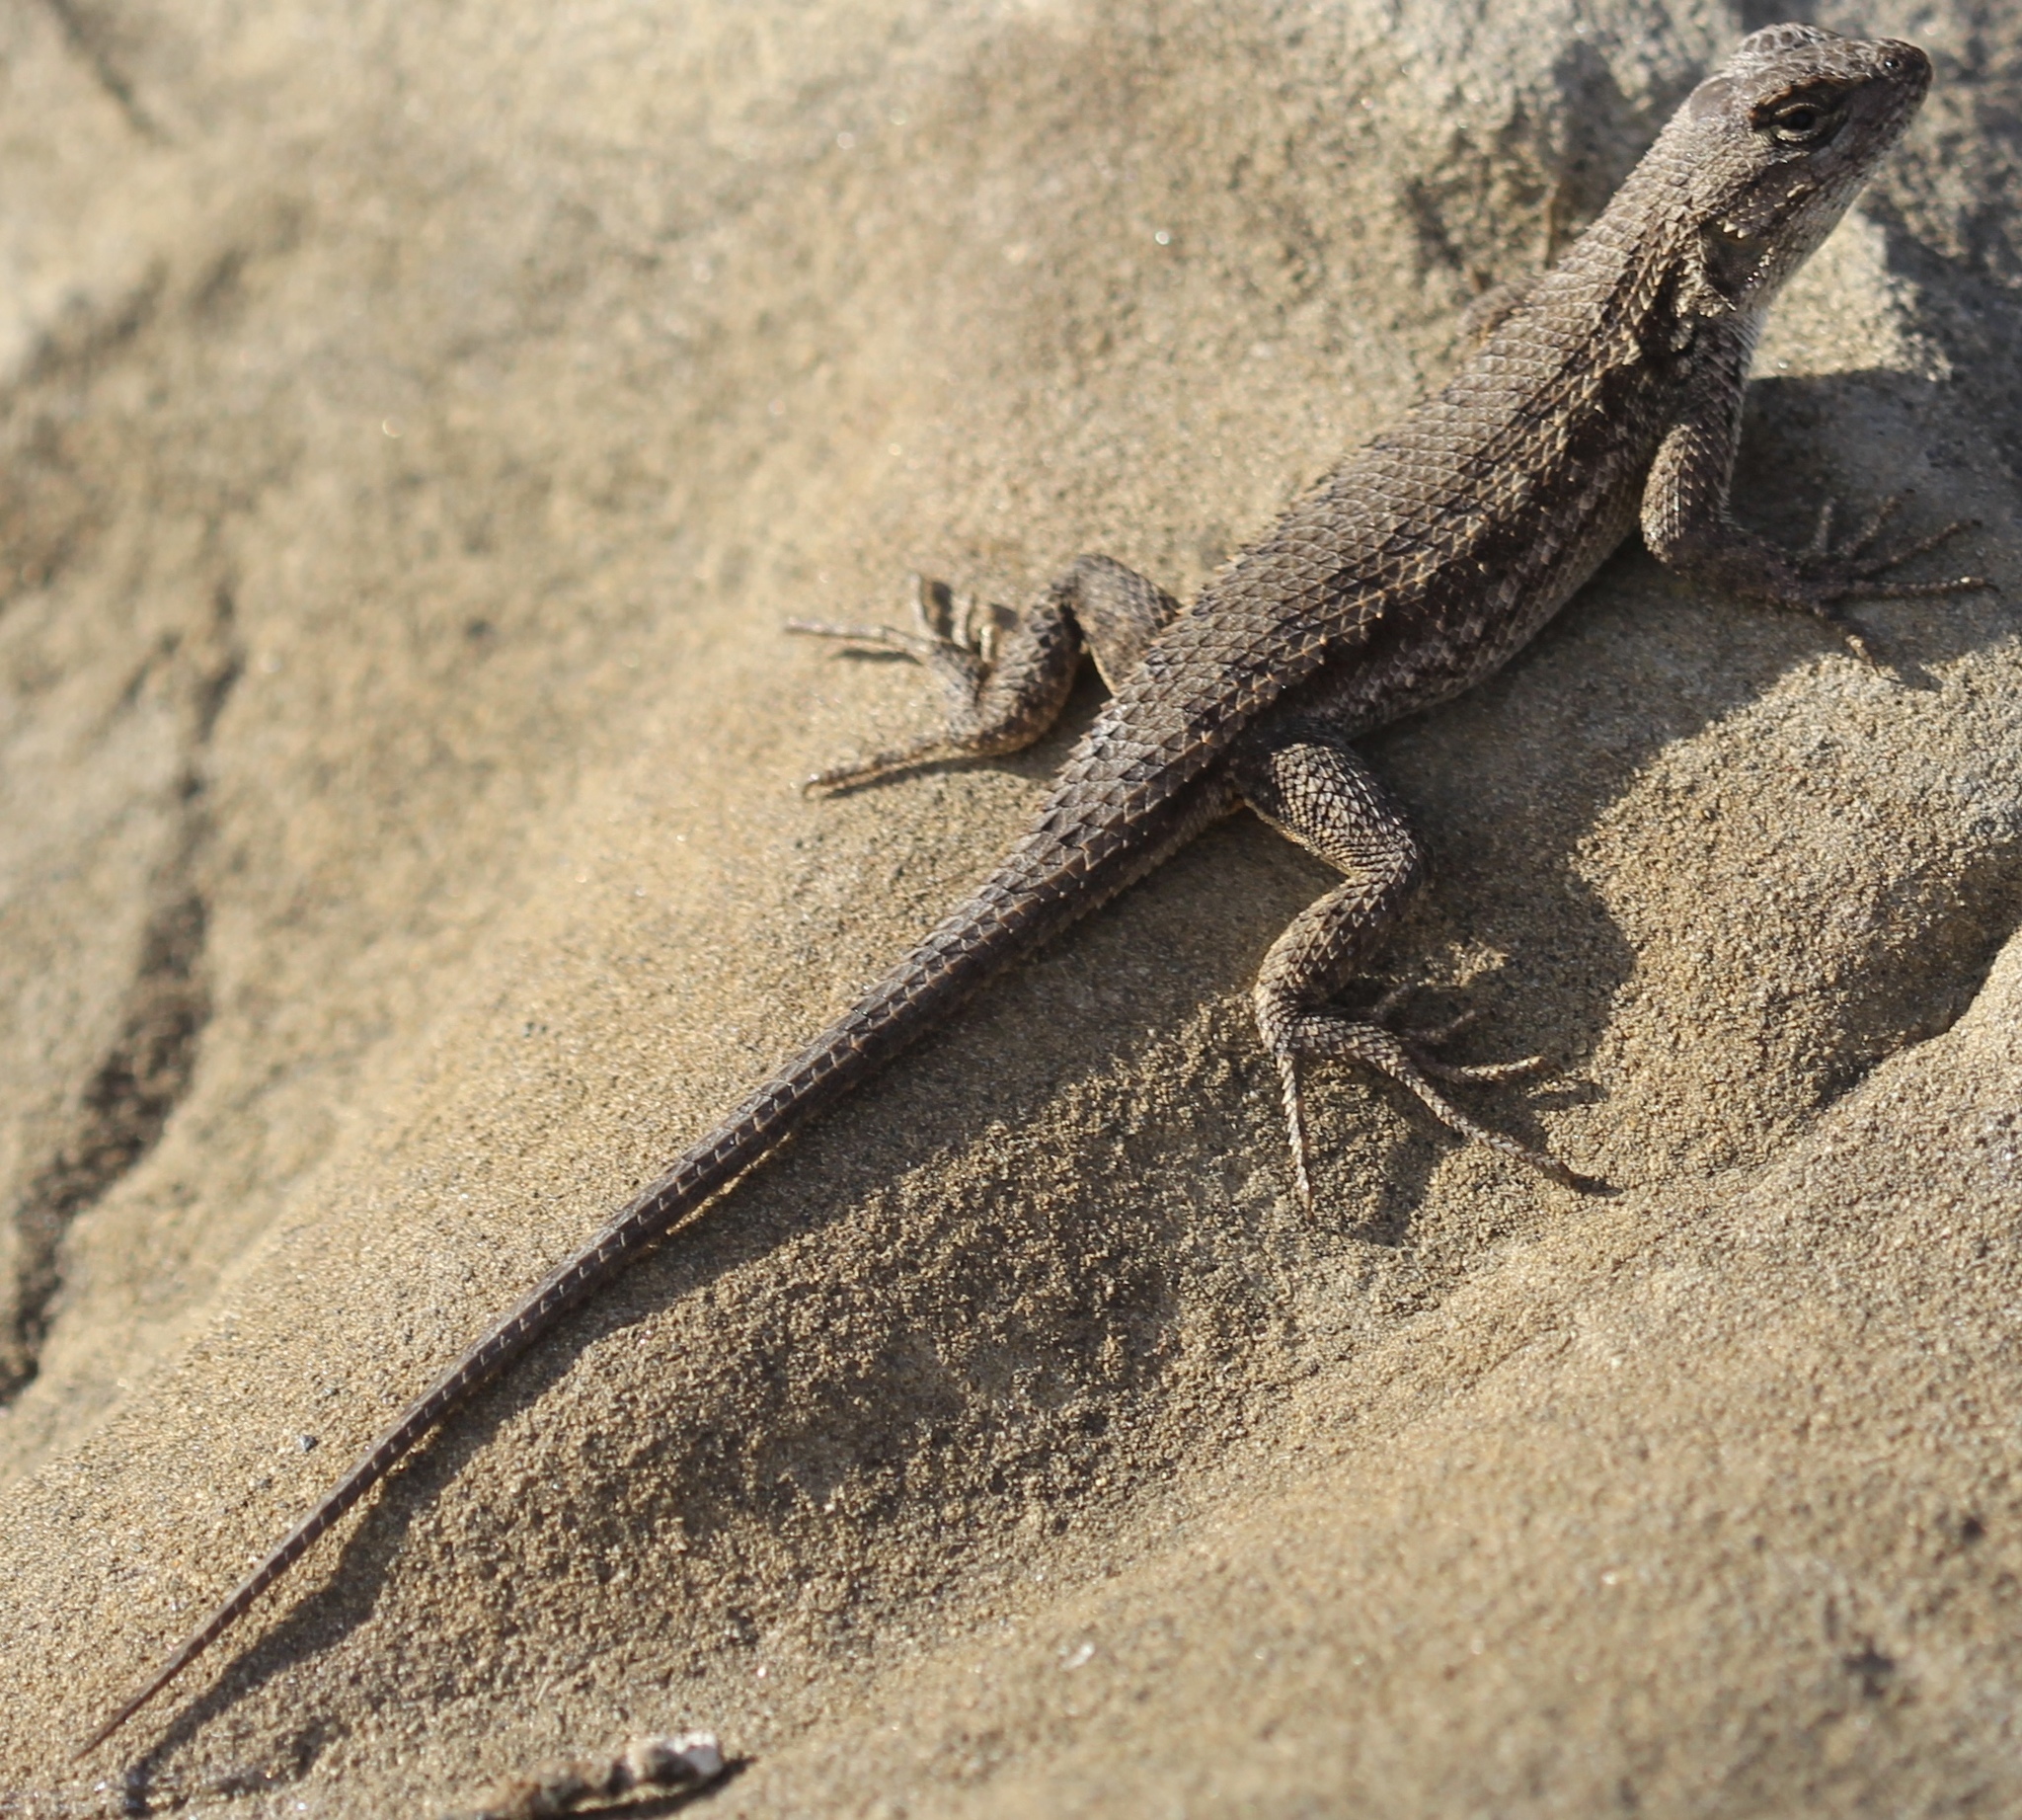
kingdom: Animalia
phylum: Chordata
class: Squamata
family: Phrynosomatidae
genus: Sceloporus
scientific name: Sceloporus occidentalis
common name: Western fence lizard
